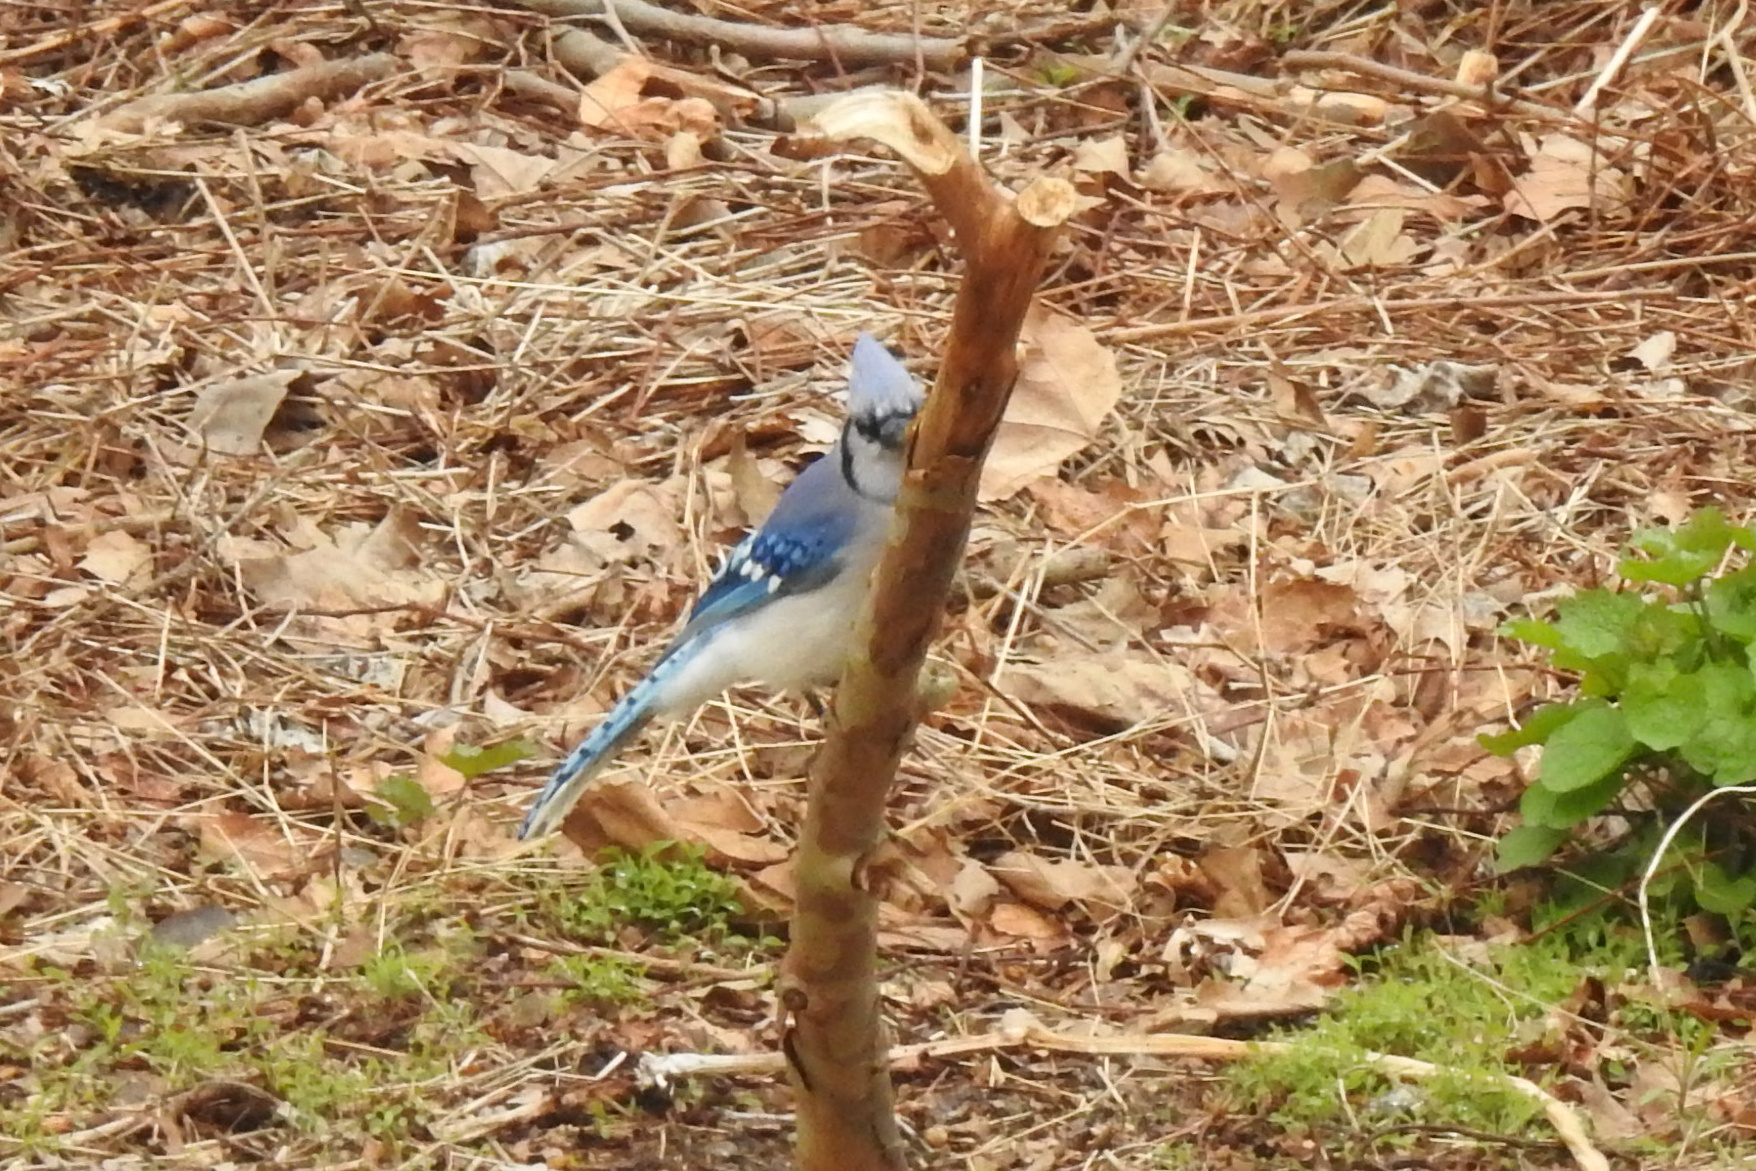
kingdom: Animalia
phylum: Chordata
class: Aves
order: Passeriformes
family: Corvidae
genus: Cyanocitta
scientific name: Cyanocitta cristata
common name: Blue jay
